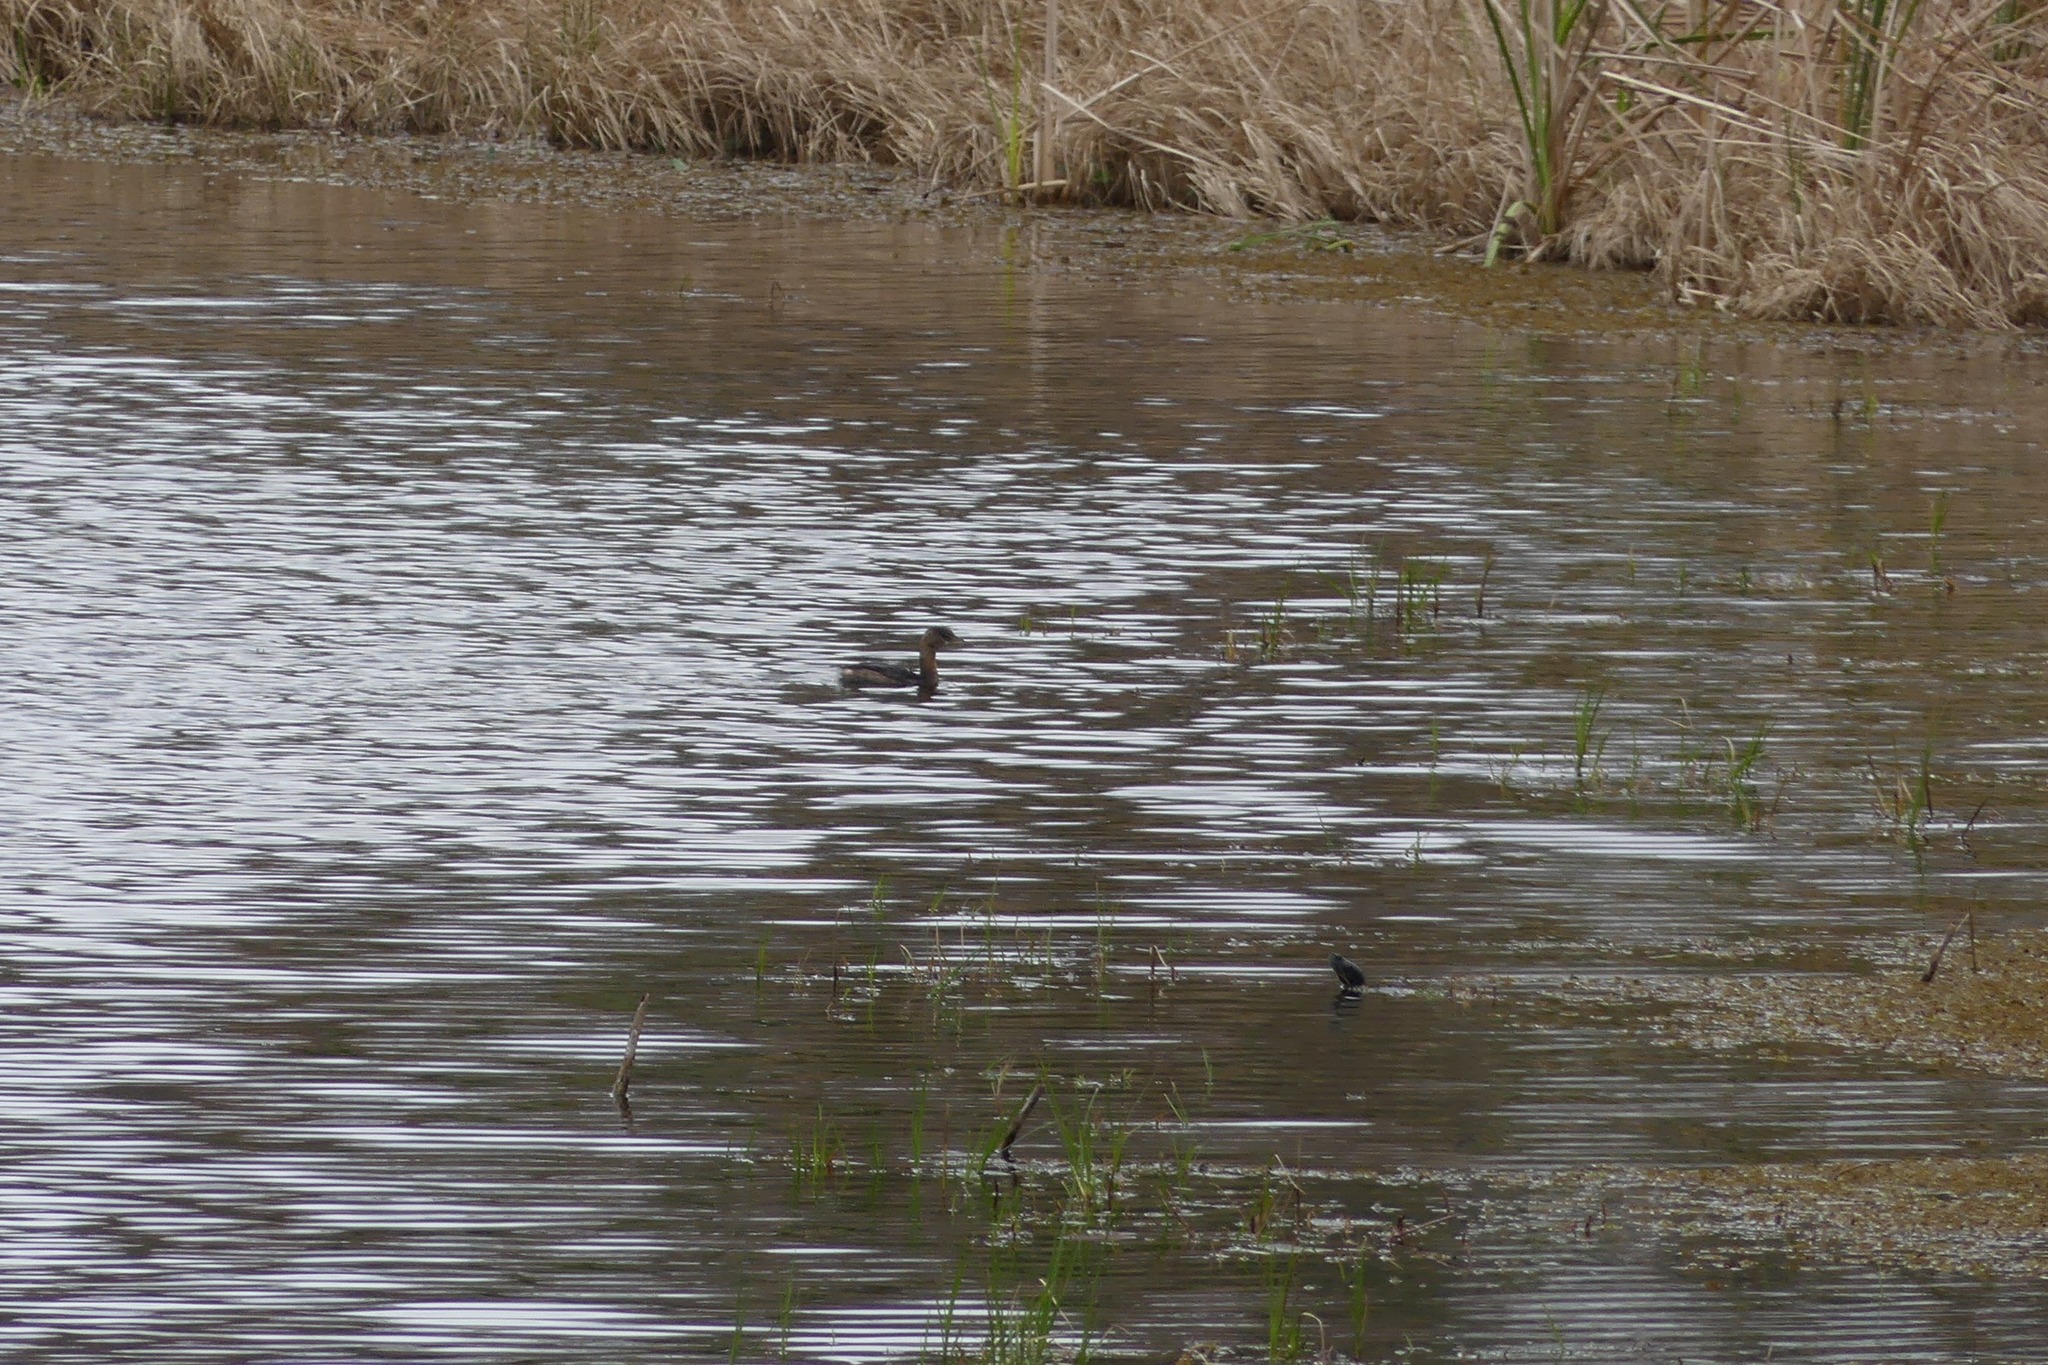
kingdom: Animalia
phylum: Chordata
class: Aves
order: Podicipediformes
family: Podicipedidae
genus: Podilymbus
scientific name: Podilymbus podiceps
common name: Pied-billed grebe
